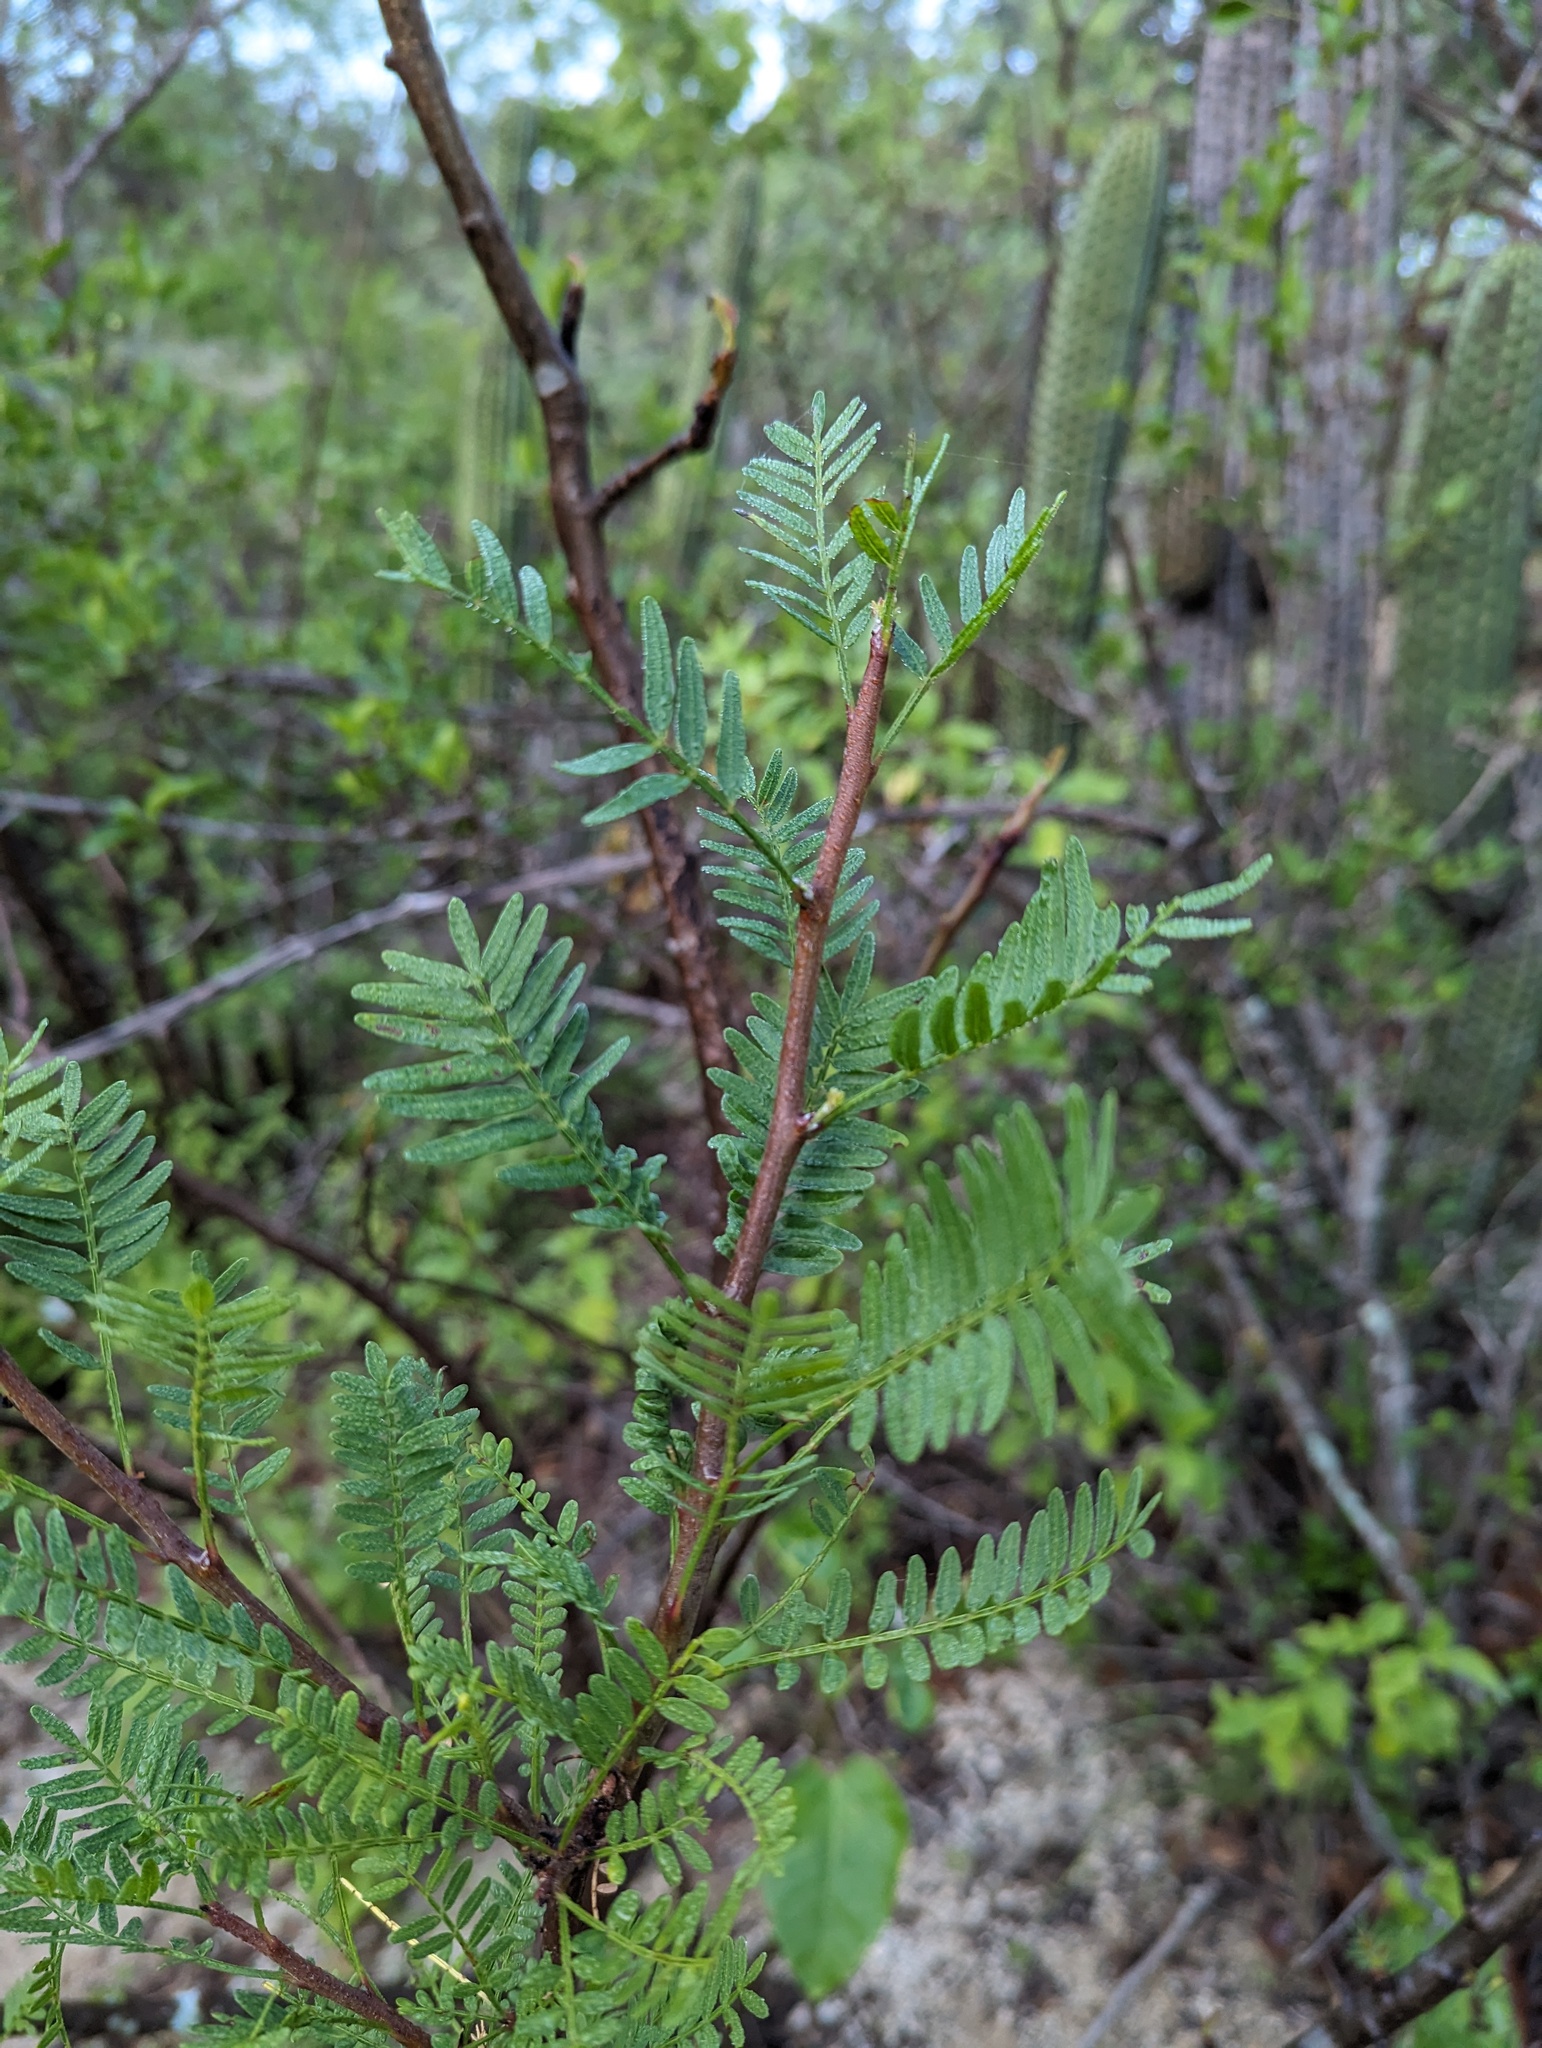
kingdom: Plantae
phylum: Tracheophyta
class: Magnoliopsida
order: Sapindales
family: Burseraceae
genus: Bursera
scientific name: Bursera microphylla
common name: Elephant tree
